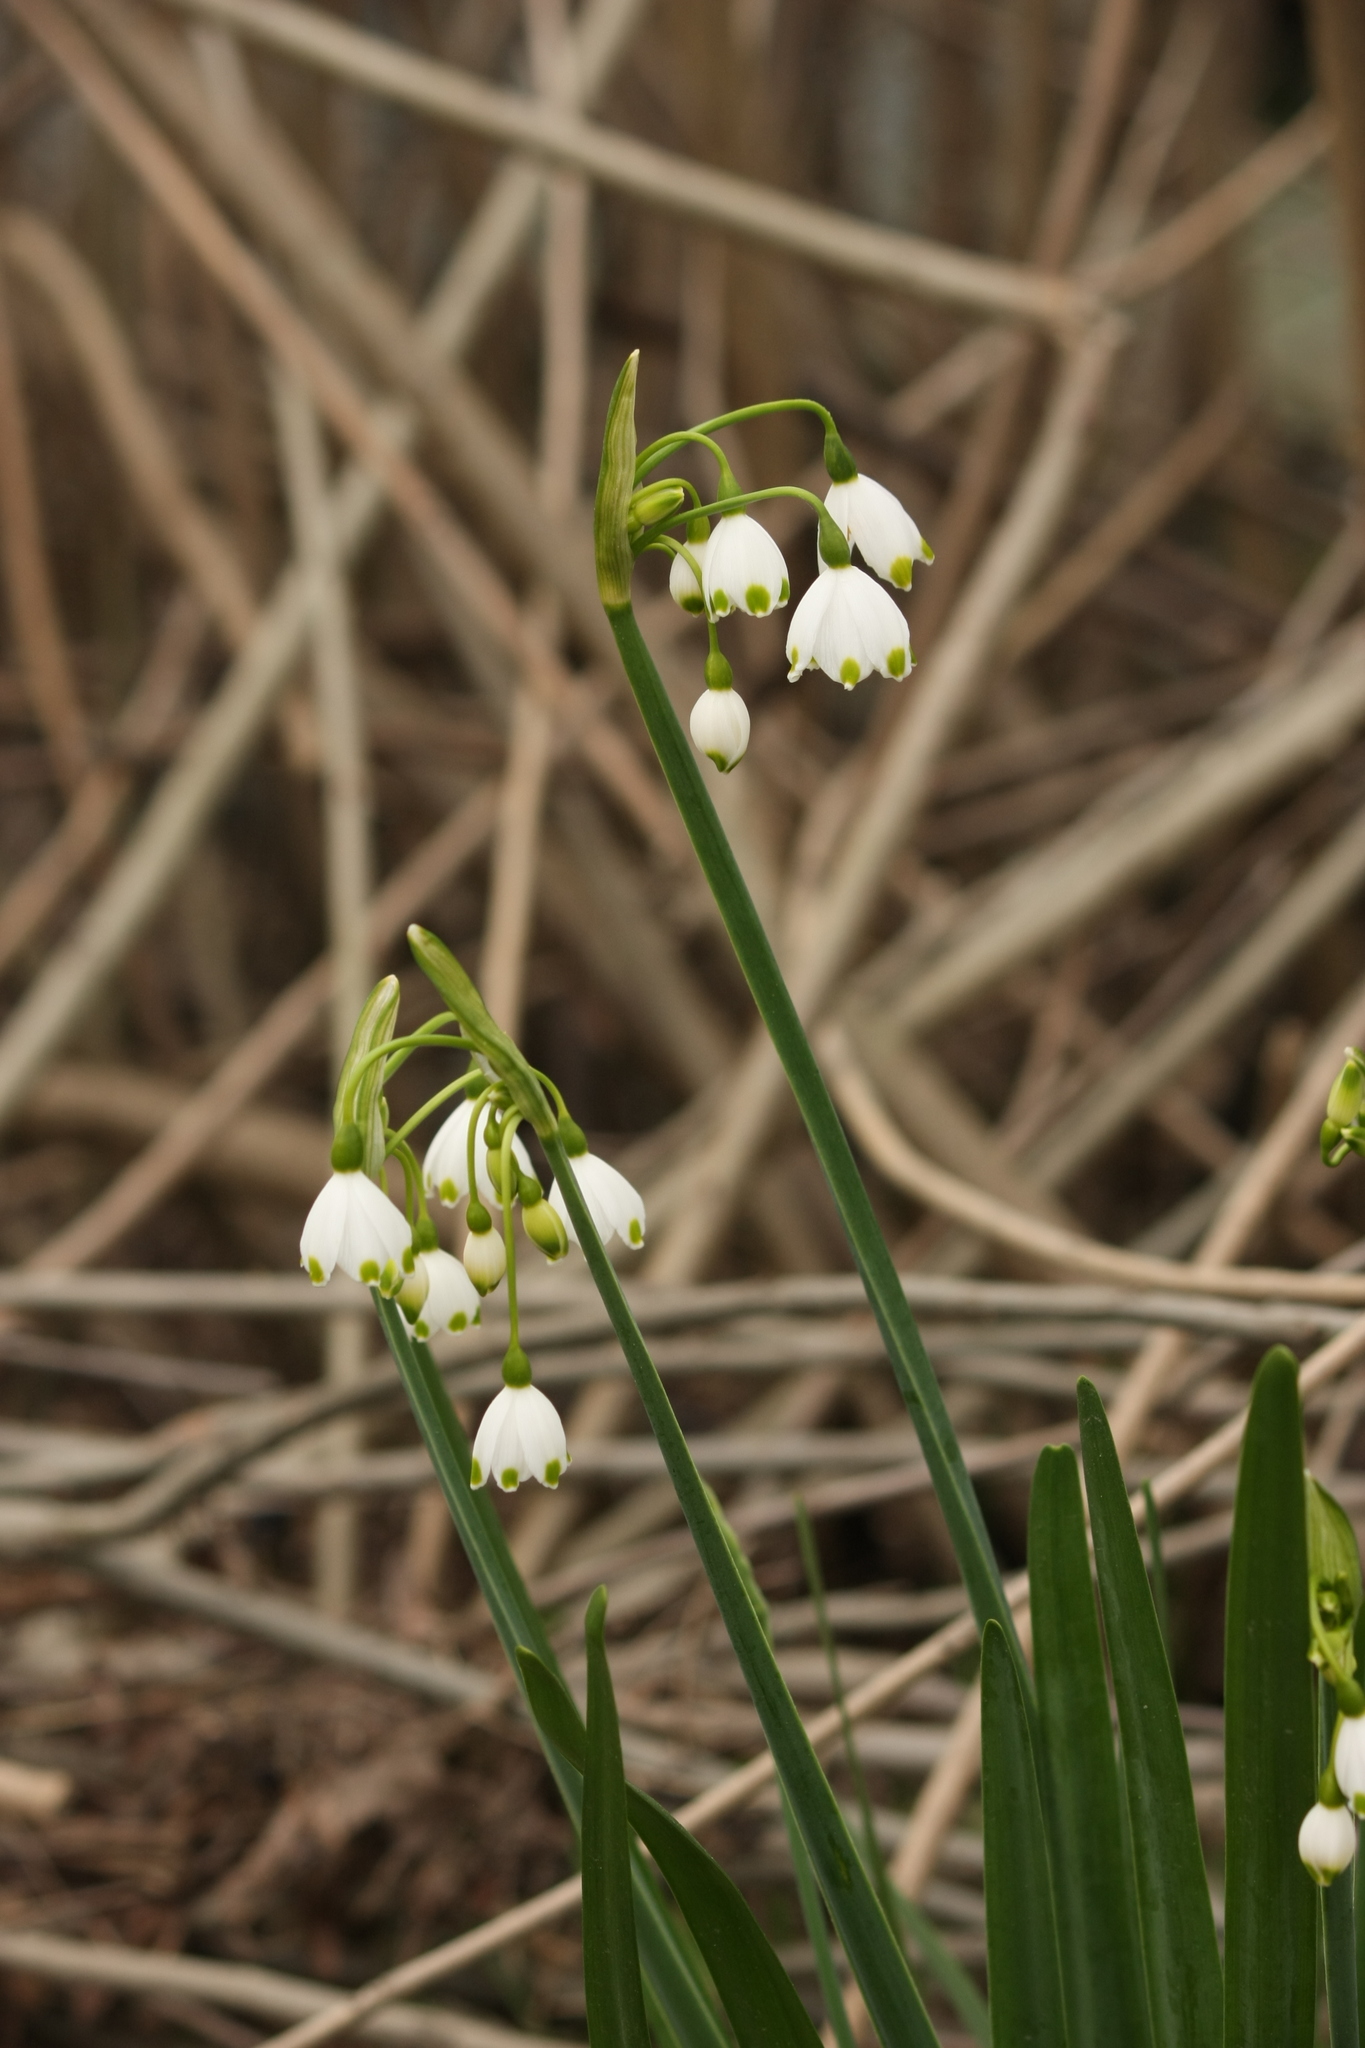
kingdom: Plantae
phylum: Tracheophyta
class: Liliopsida
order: Asparagales
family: Amaryllidaceae
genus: Leucojum
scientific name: Leucojum aestivum
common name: Summer snowflake
